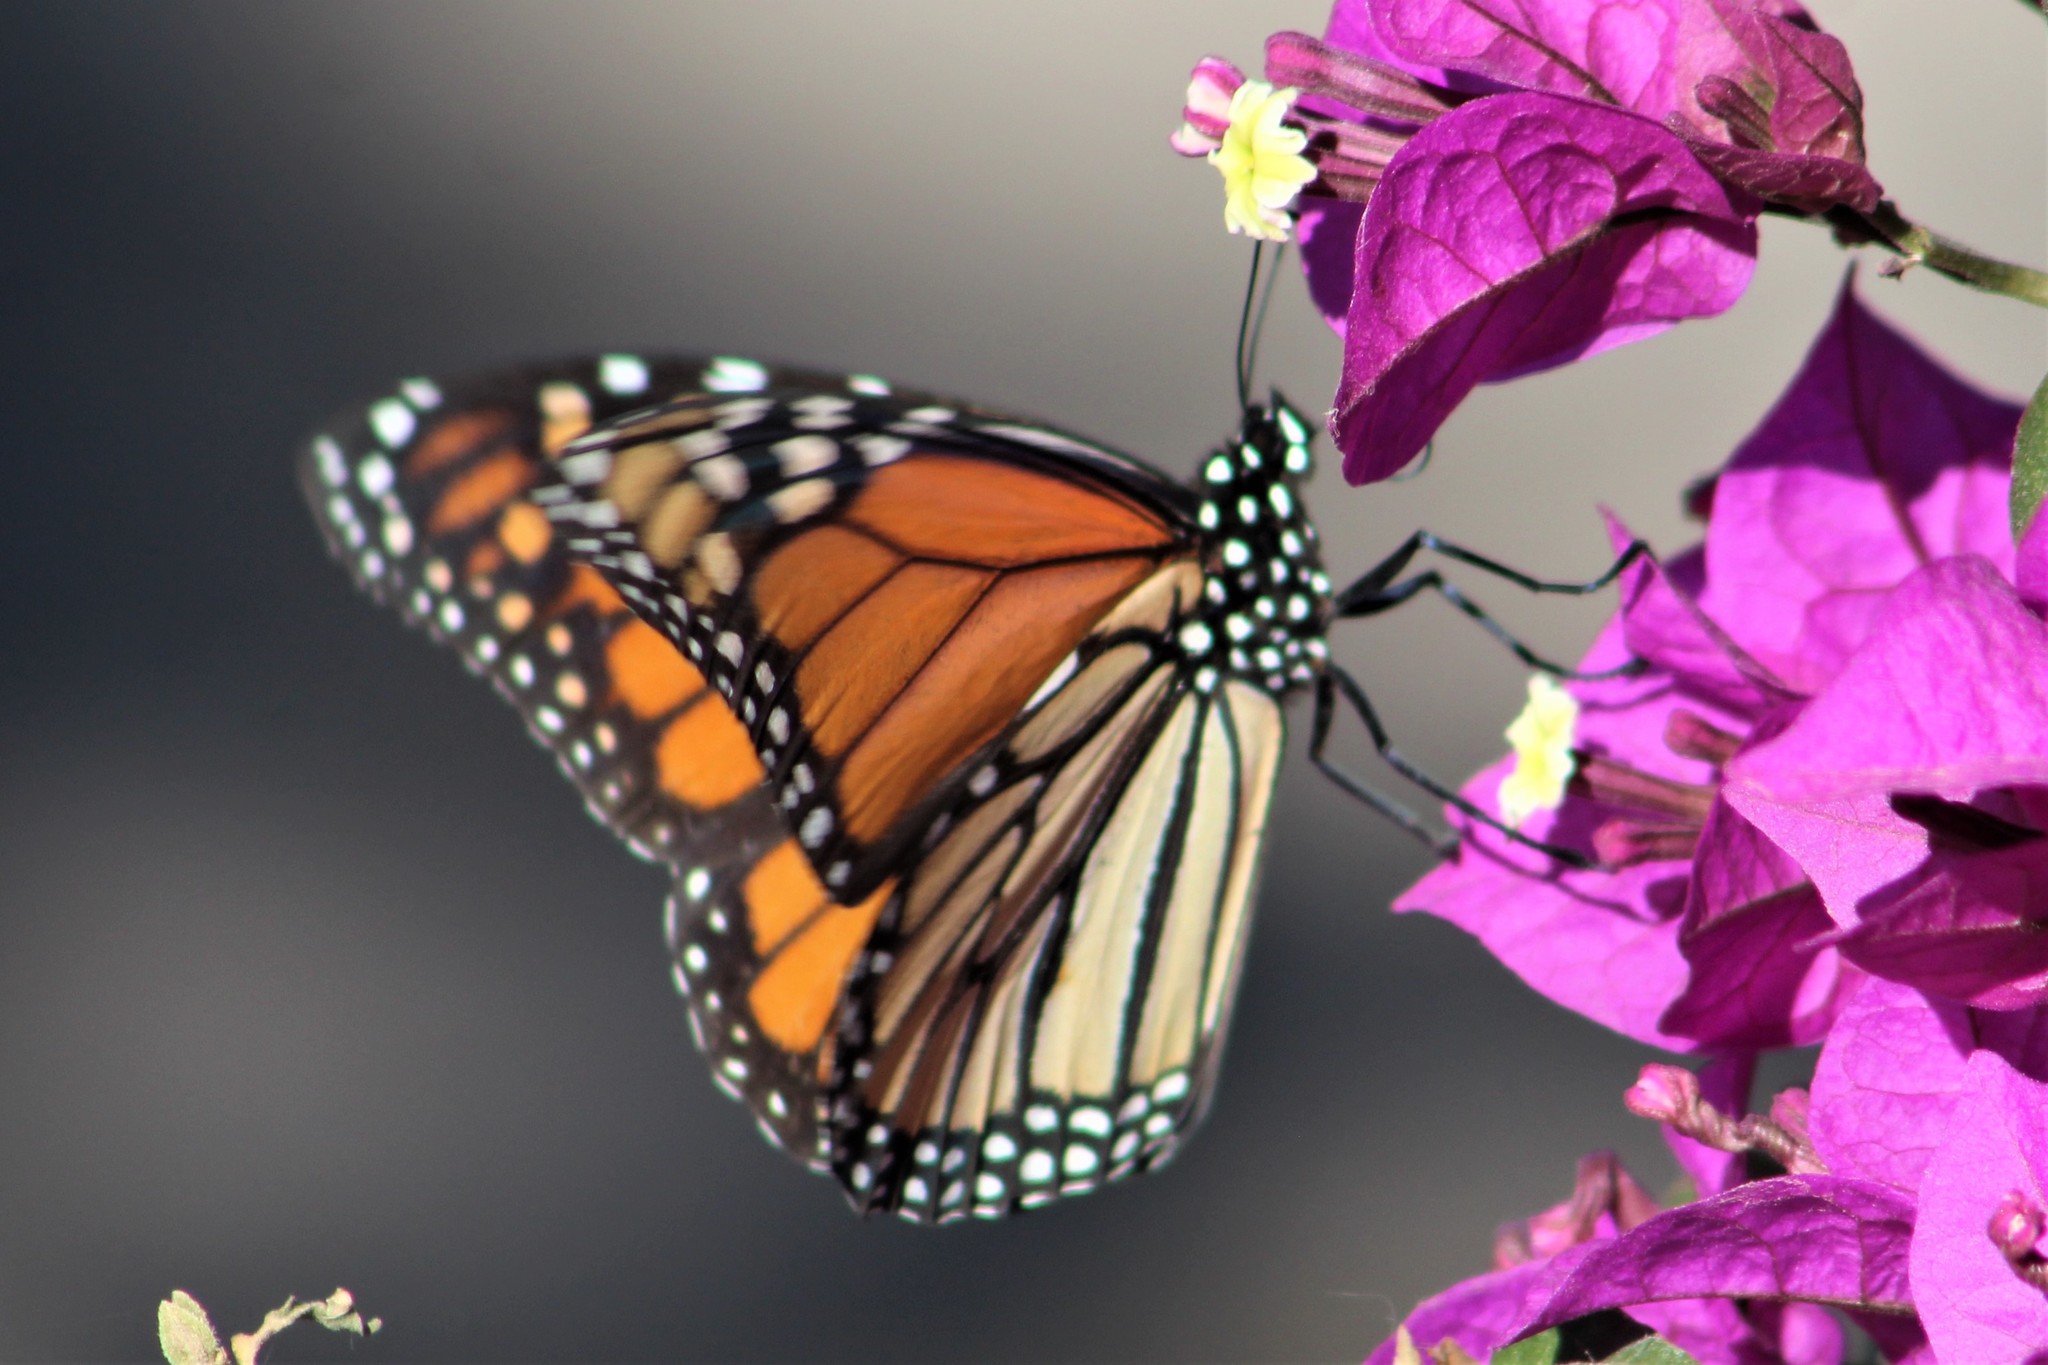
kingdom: Animalia
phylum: Arthropoda
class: Insecta
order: Lepidoptera
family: Nymphalidae
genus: Danaus
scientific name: Danaus plexippus
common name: Monarch
